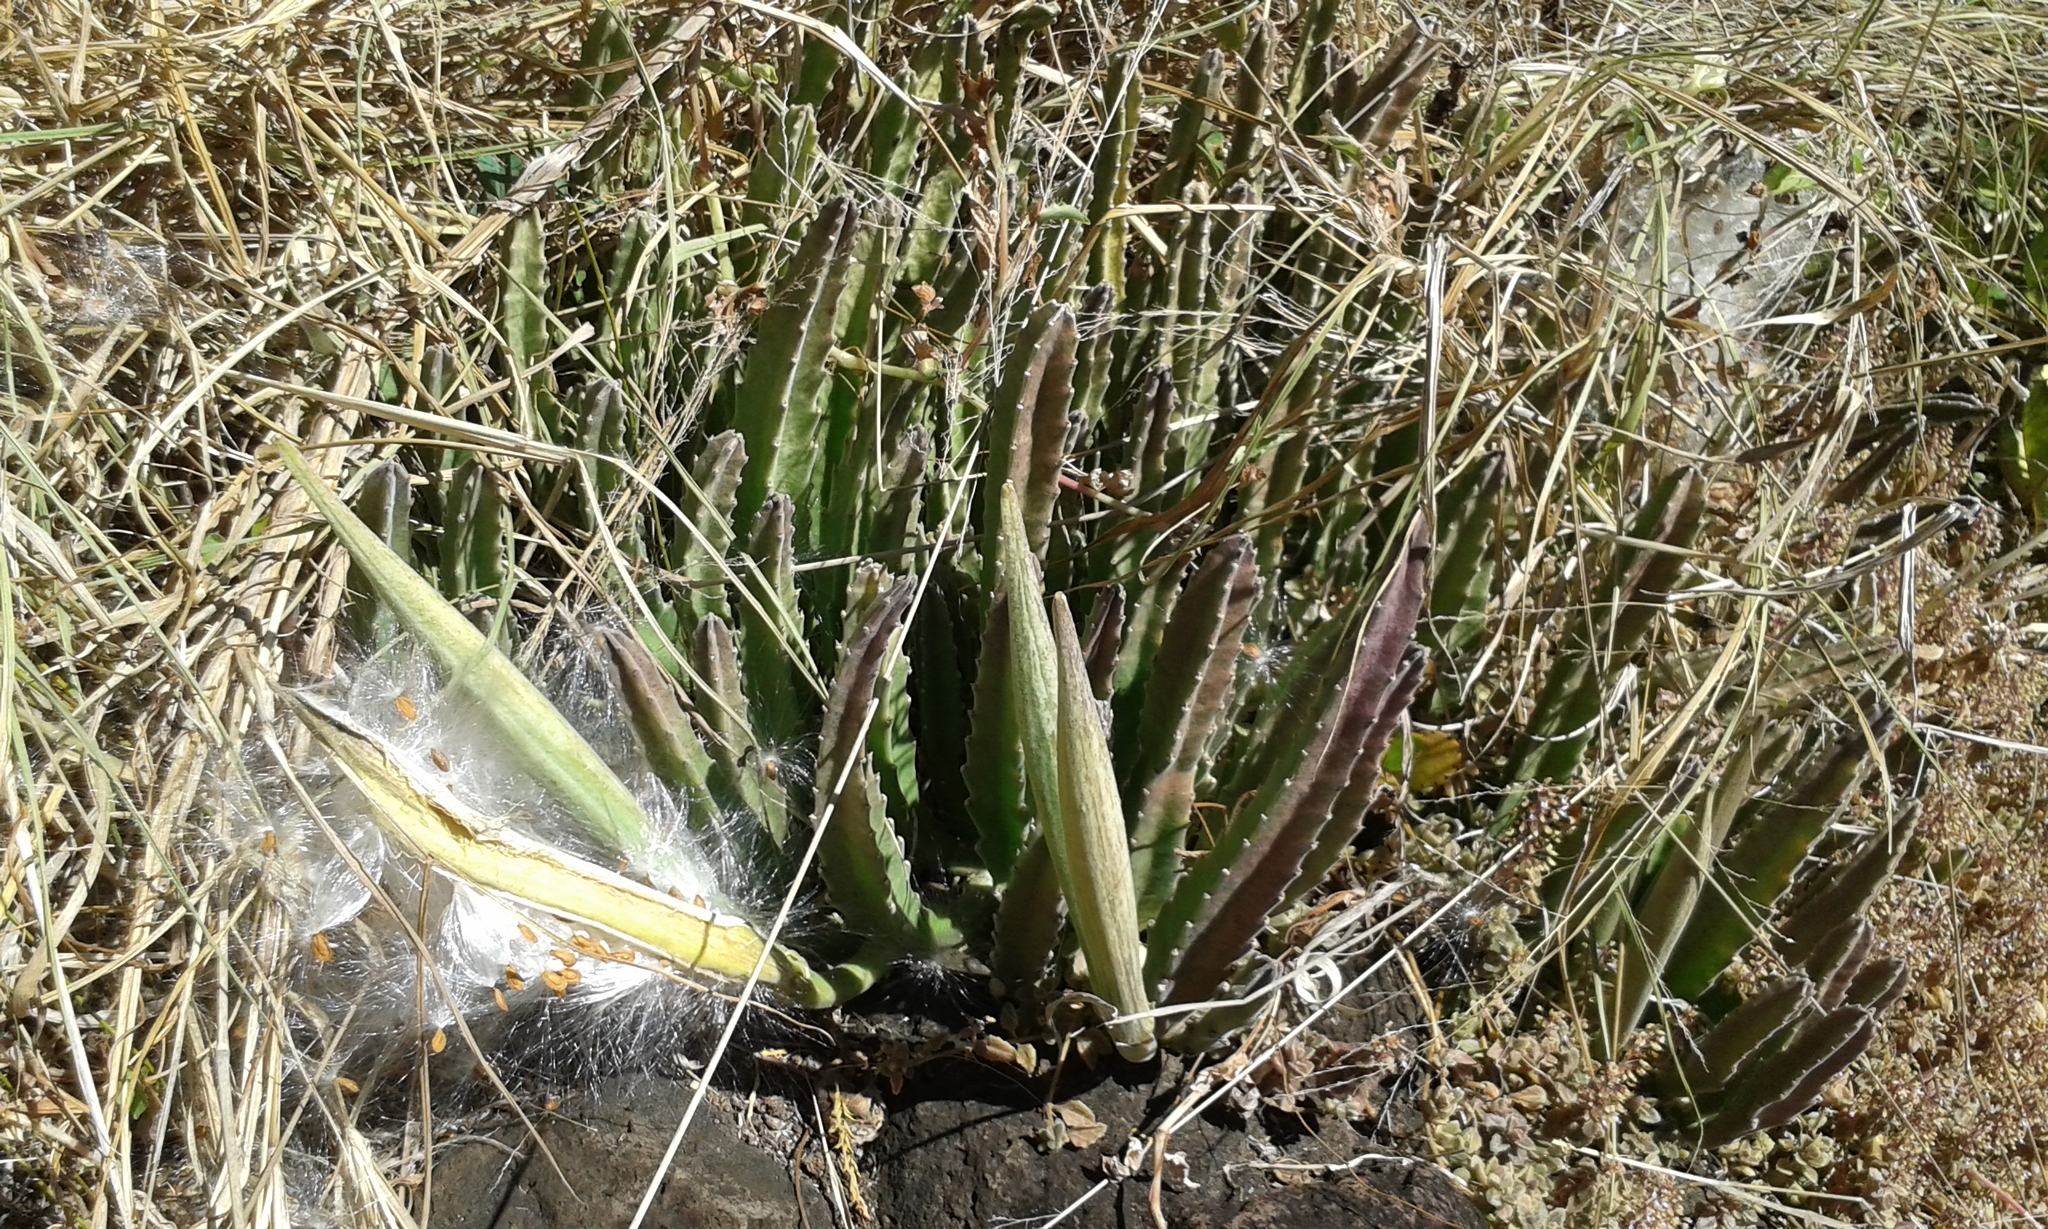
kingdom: Plantae
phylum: Tracheophyta
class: Magnoliopsida
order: Gentianales
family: Apocynaceae
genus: Ceropegia
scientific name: Ceropegia gigantea
